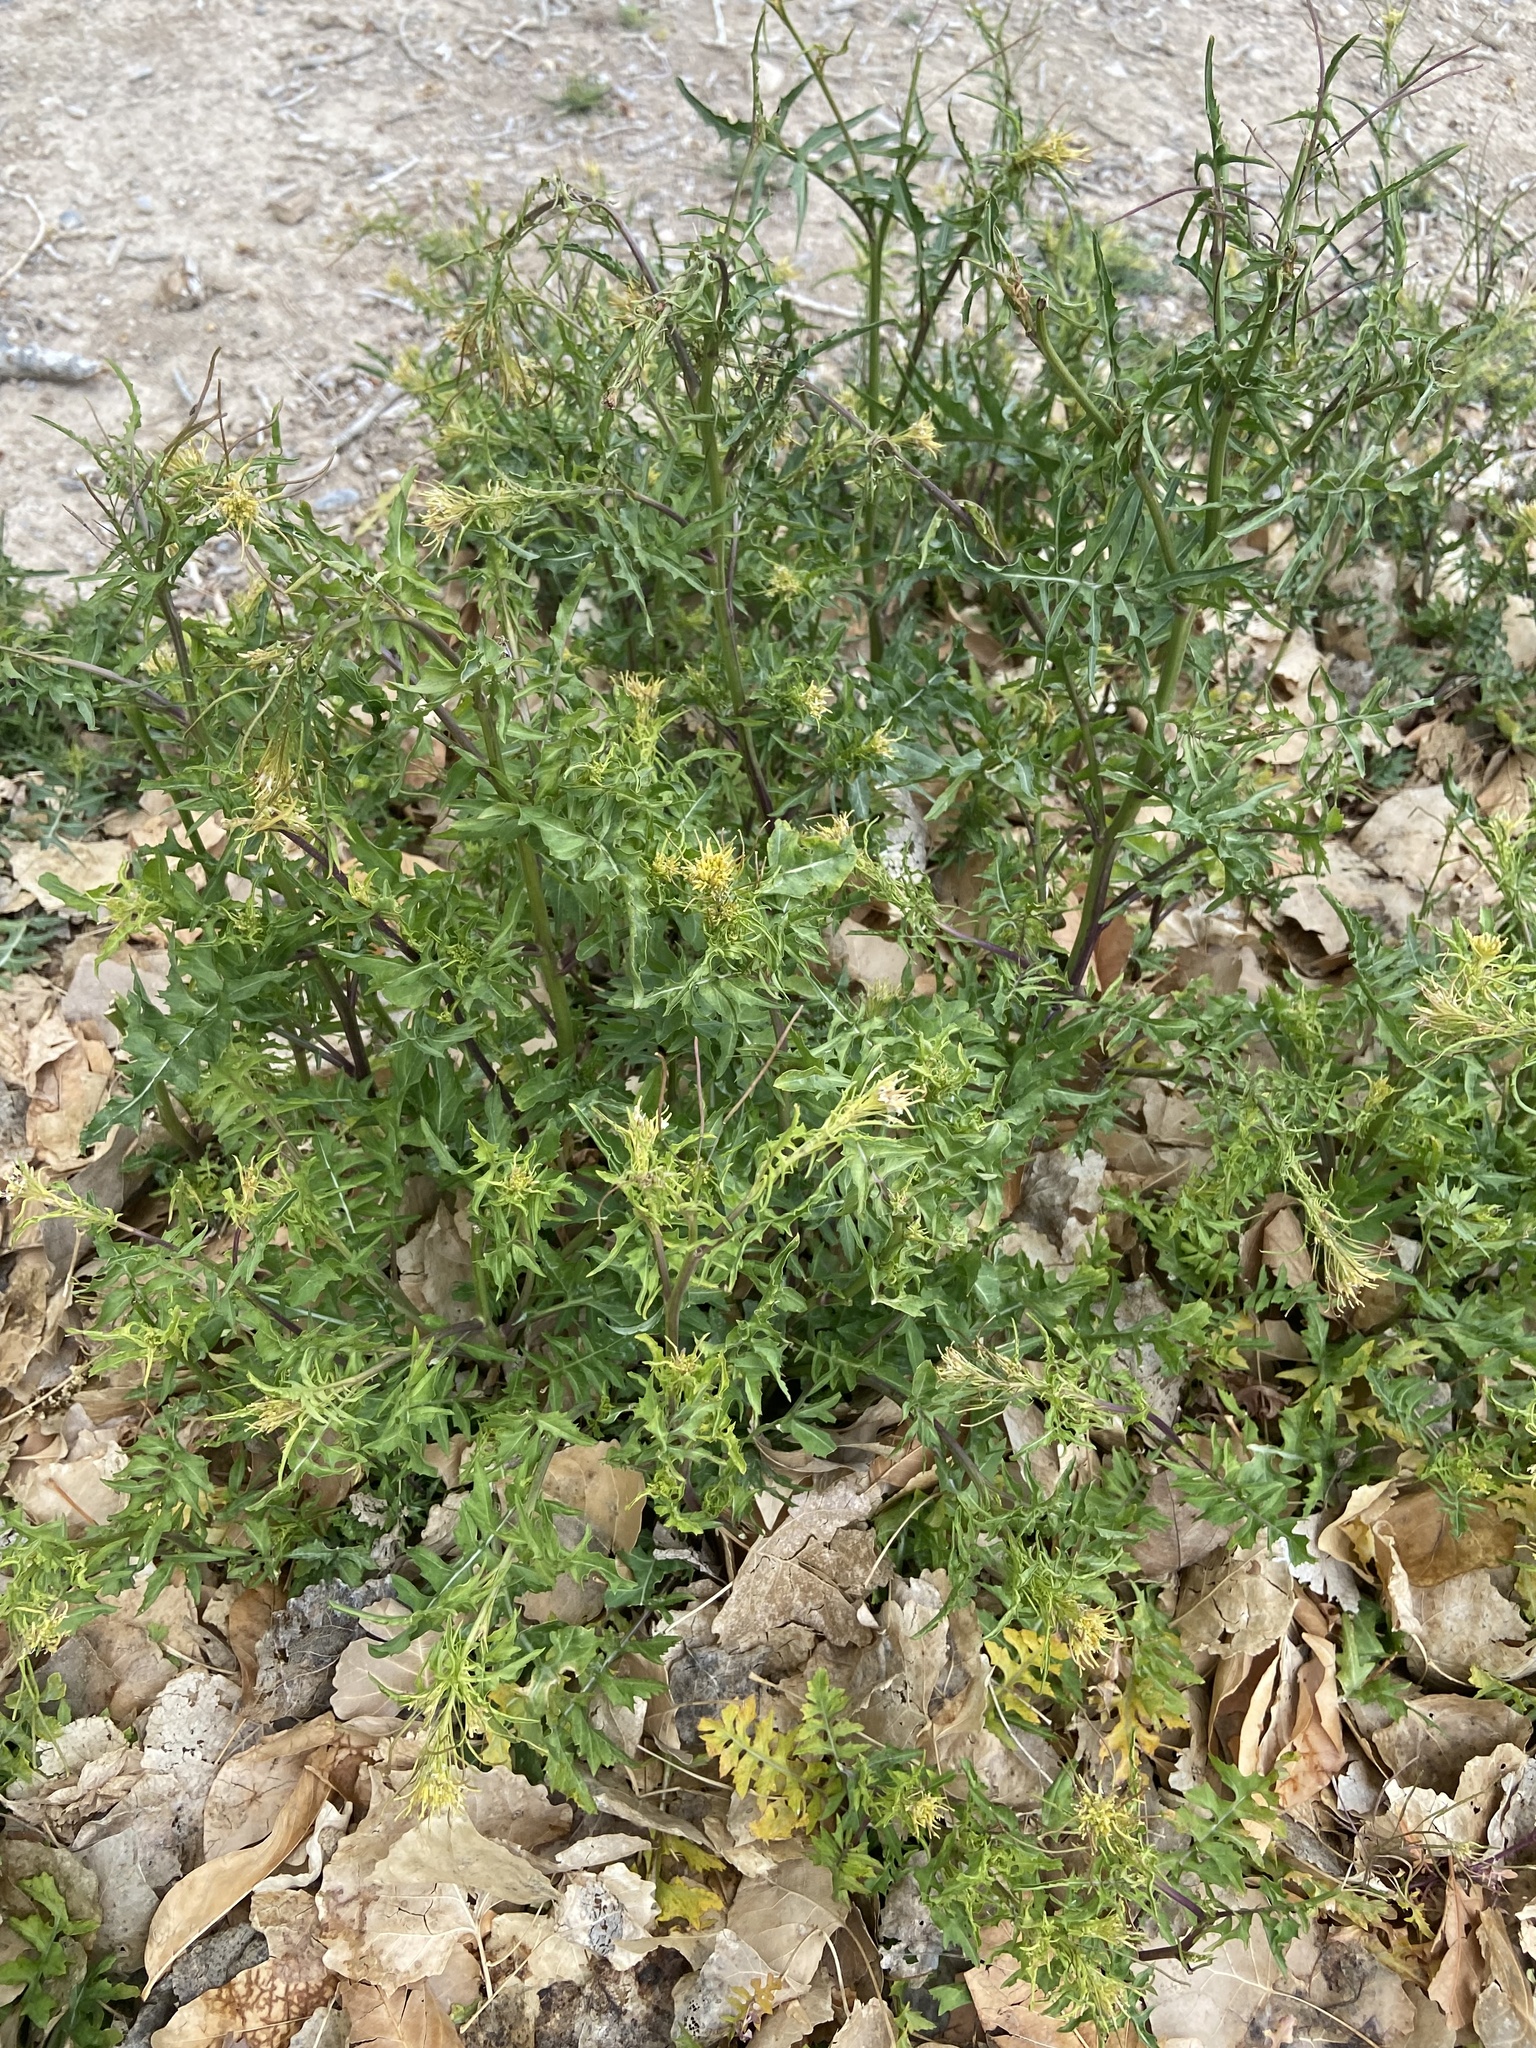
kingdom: Plantae
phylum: Tracheophyta
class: Magnoliopsida
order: Brassicales
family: Brassicaceae
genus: Sisymbrium
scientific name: Sisymbrium irio
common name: London rocket
